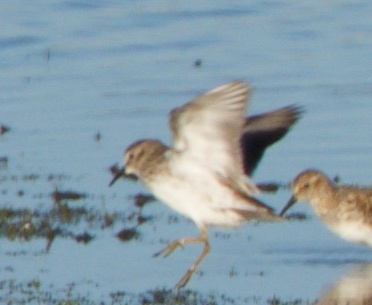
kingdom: Animalia
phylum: Chordata
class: Aves
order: Charadriiformes
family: Scolopacidae
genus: Calidris
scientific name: Calidris minutilla
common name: Least sandpiper
